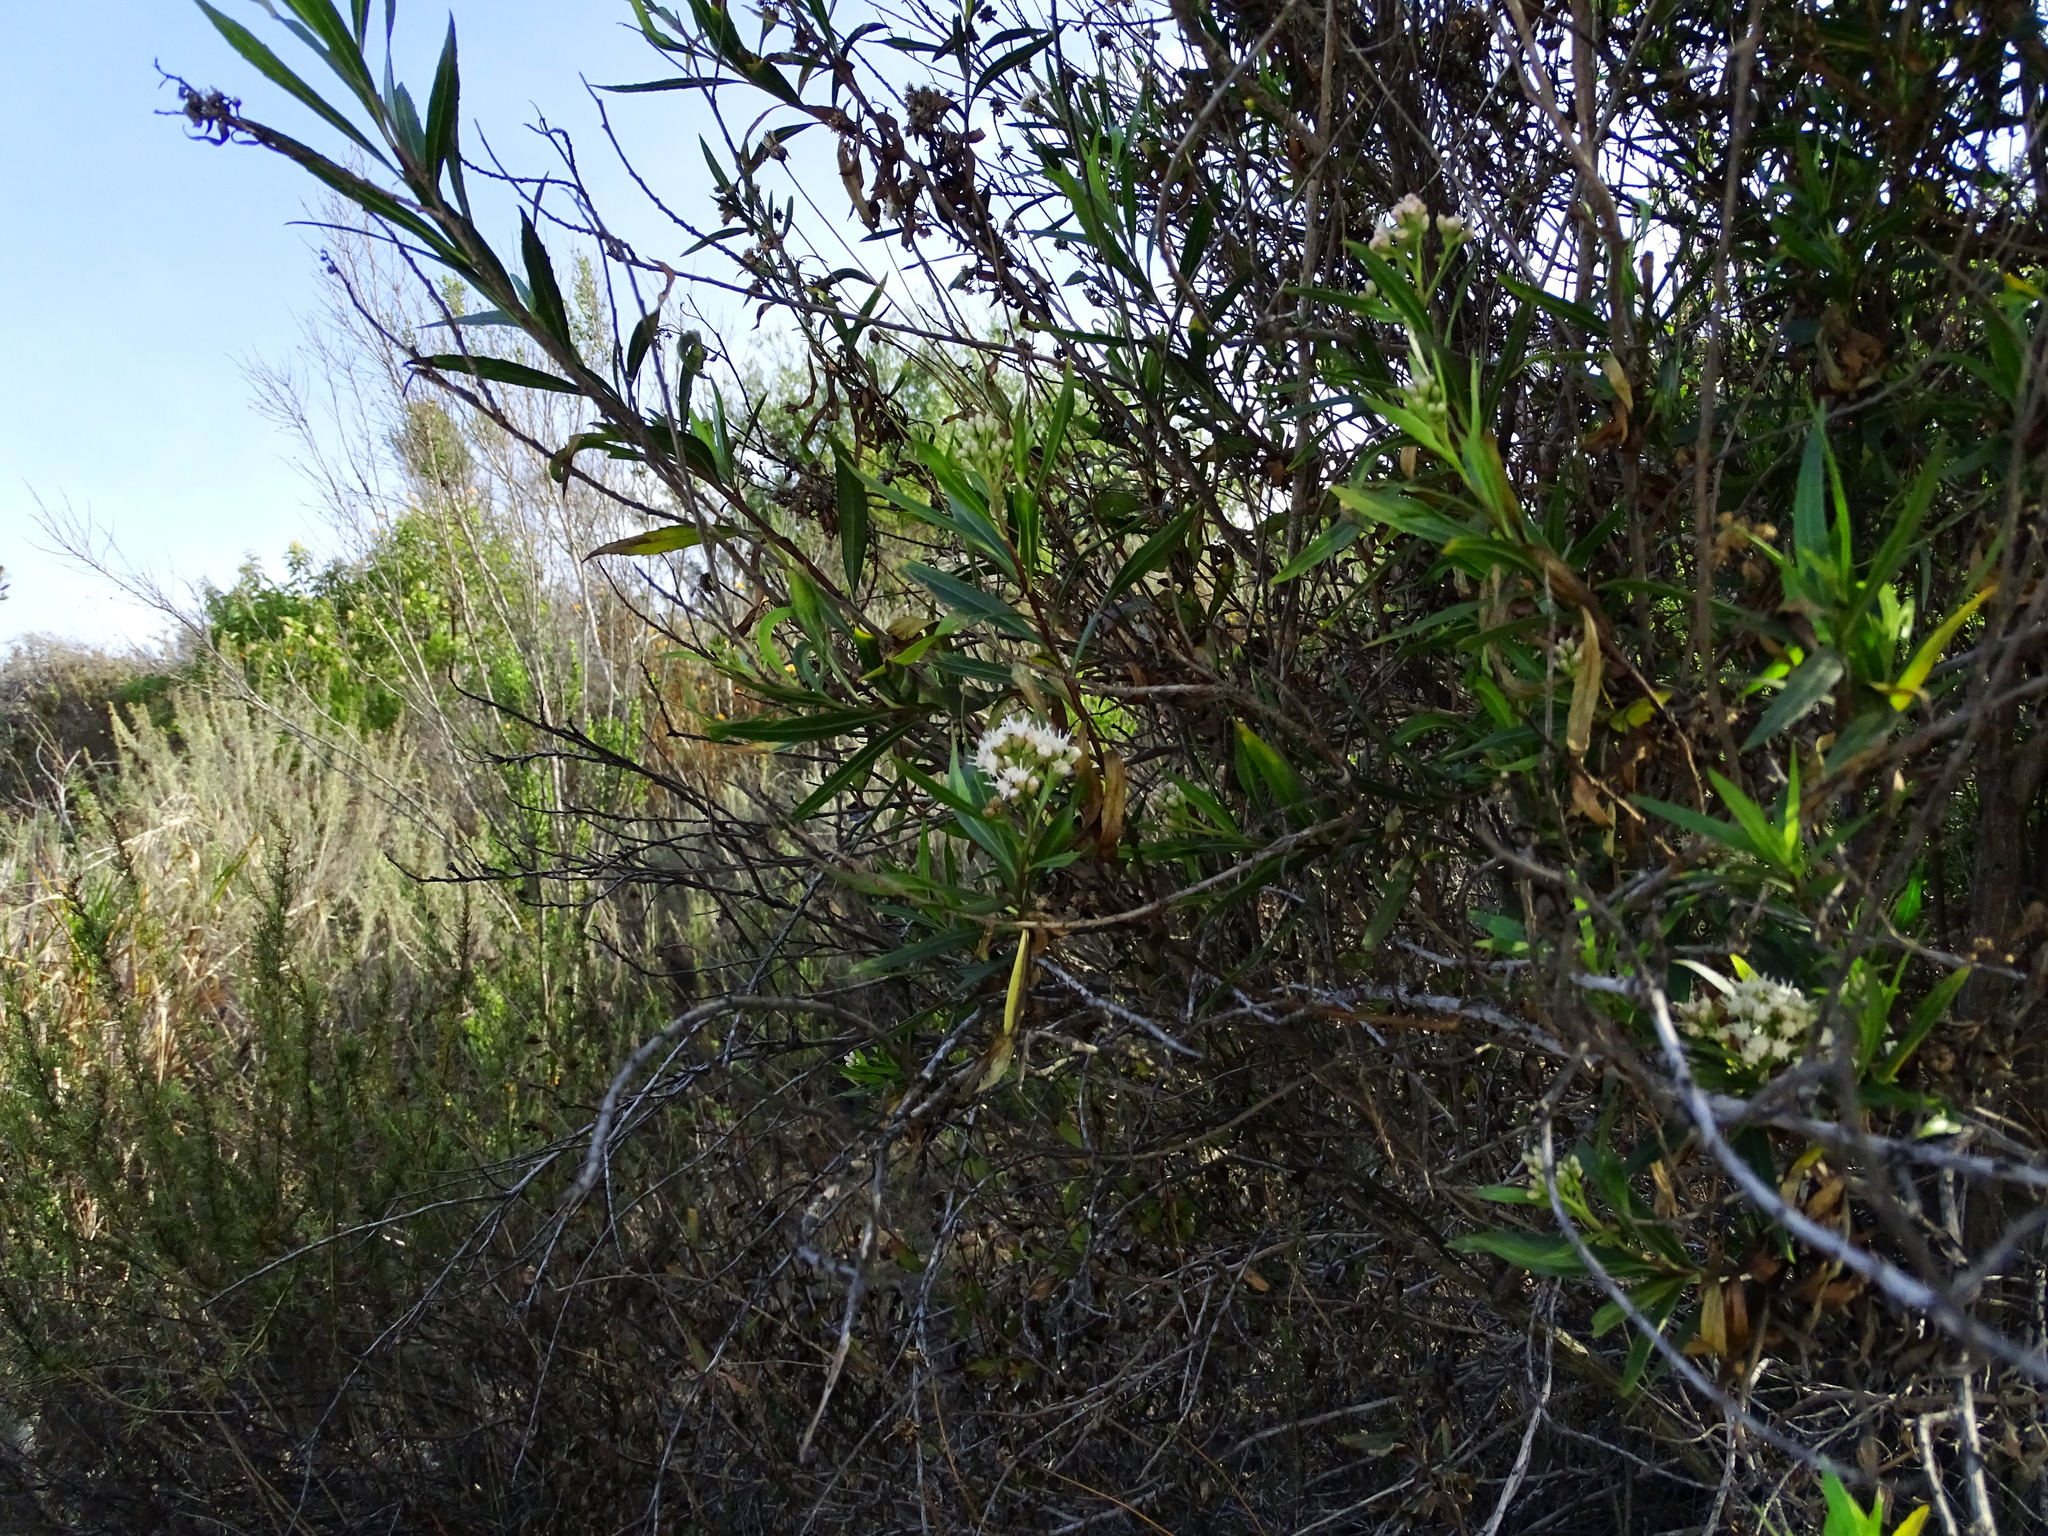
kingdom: Plantae
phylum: Tracheophyta
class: Magnoliopsida
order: Asterales
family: Asteraceae
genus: Baccharis
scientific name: Baccharis salicifolia
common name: Sticky baccharis
